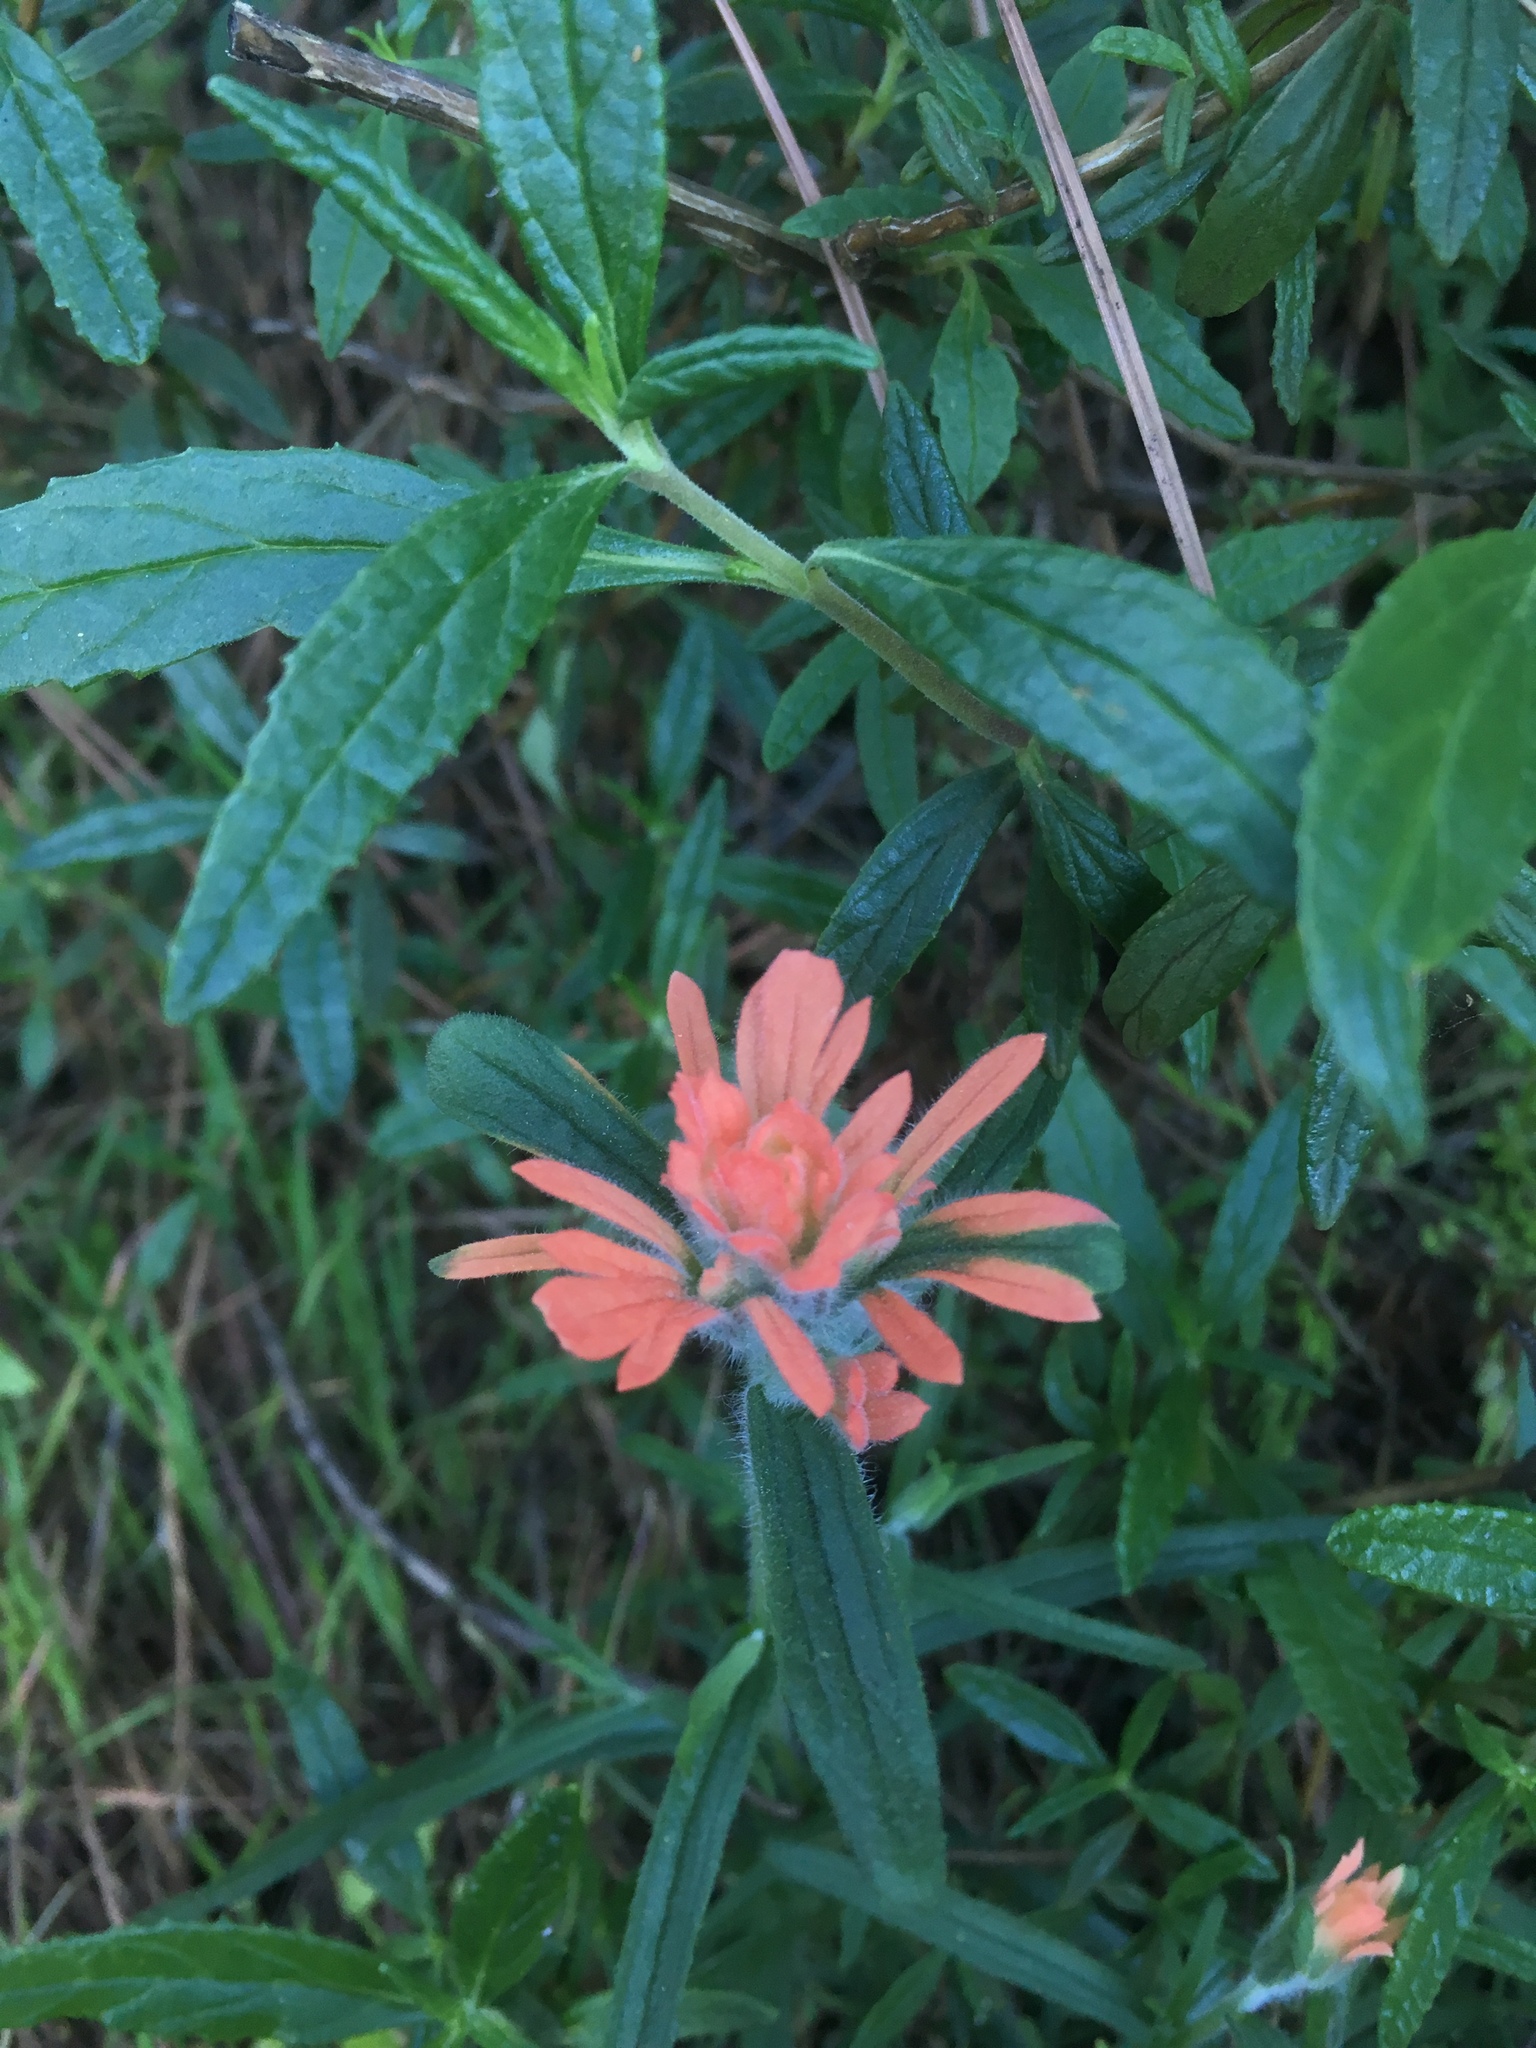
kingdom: Plantae
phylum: Tracheophyta
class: Magnoliopsida
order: Lamiales
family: Orobanchaceae
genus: Castilleja
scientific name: Castilleja affinis
